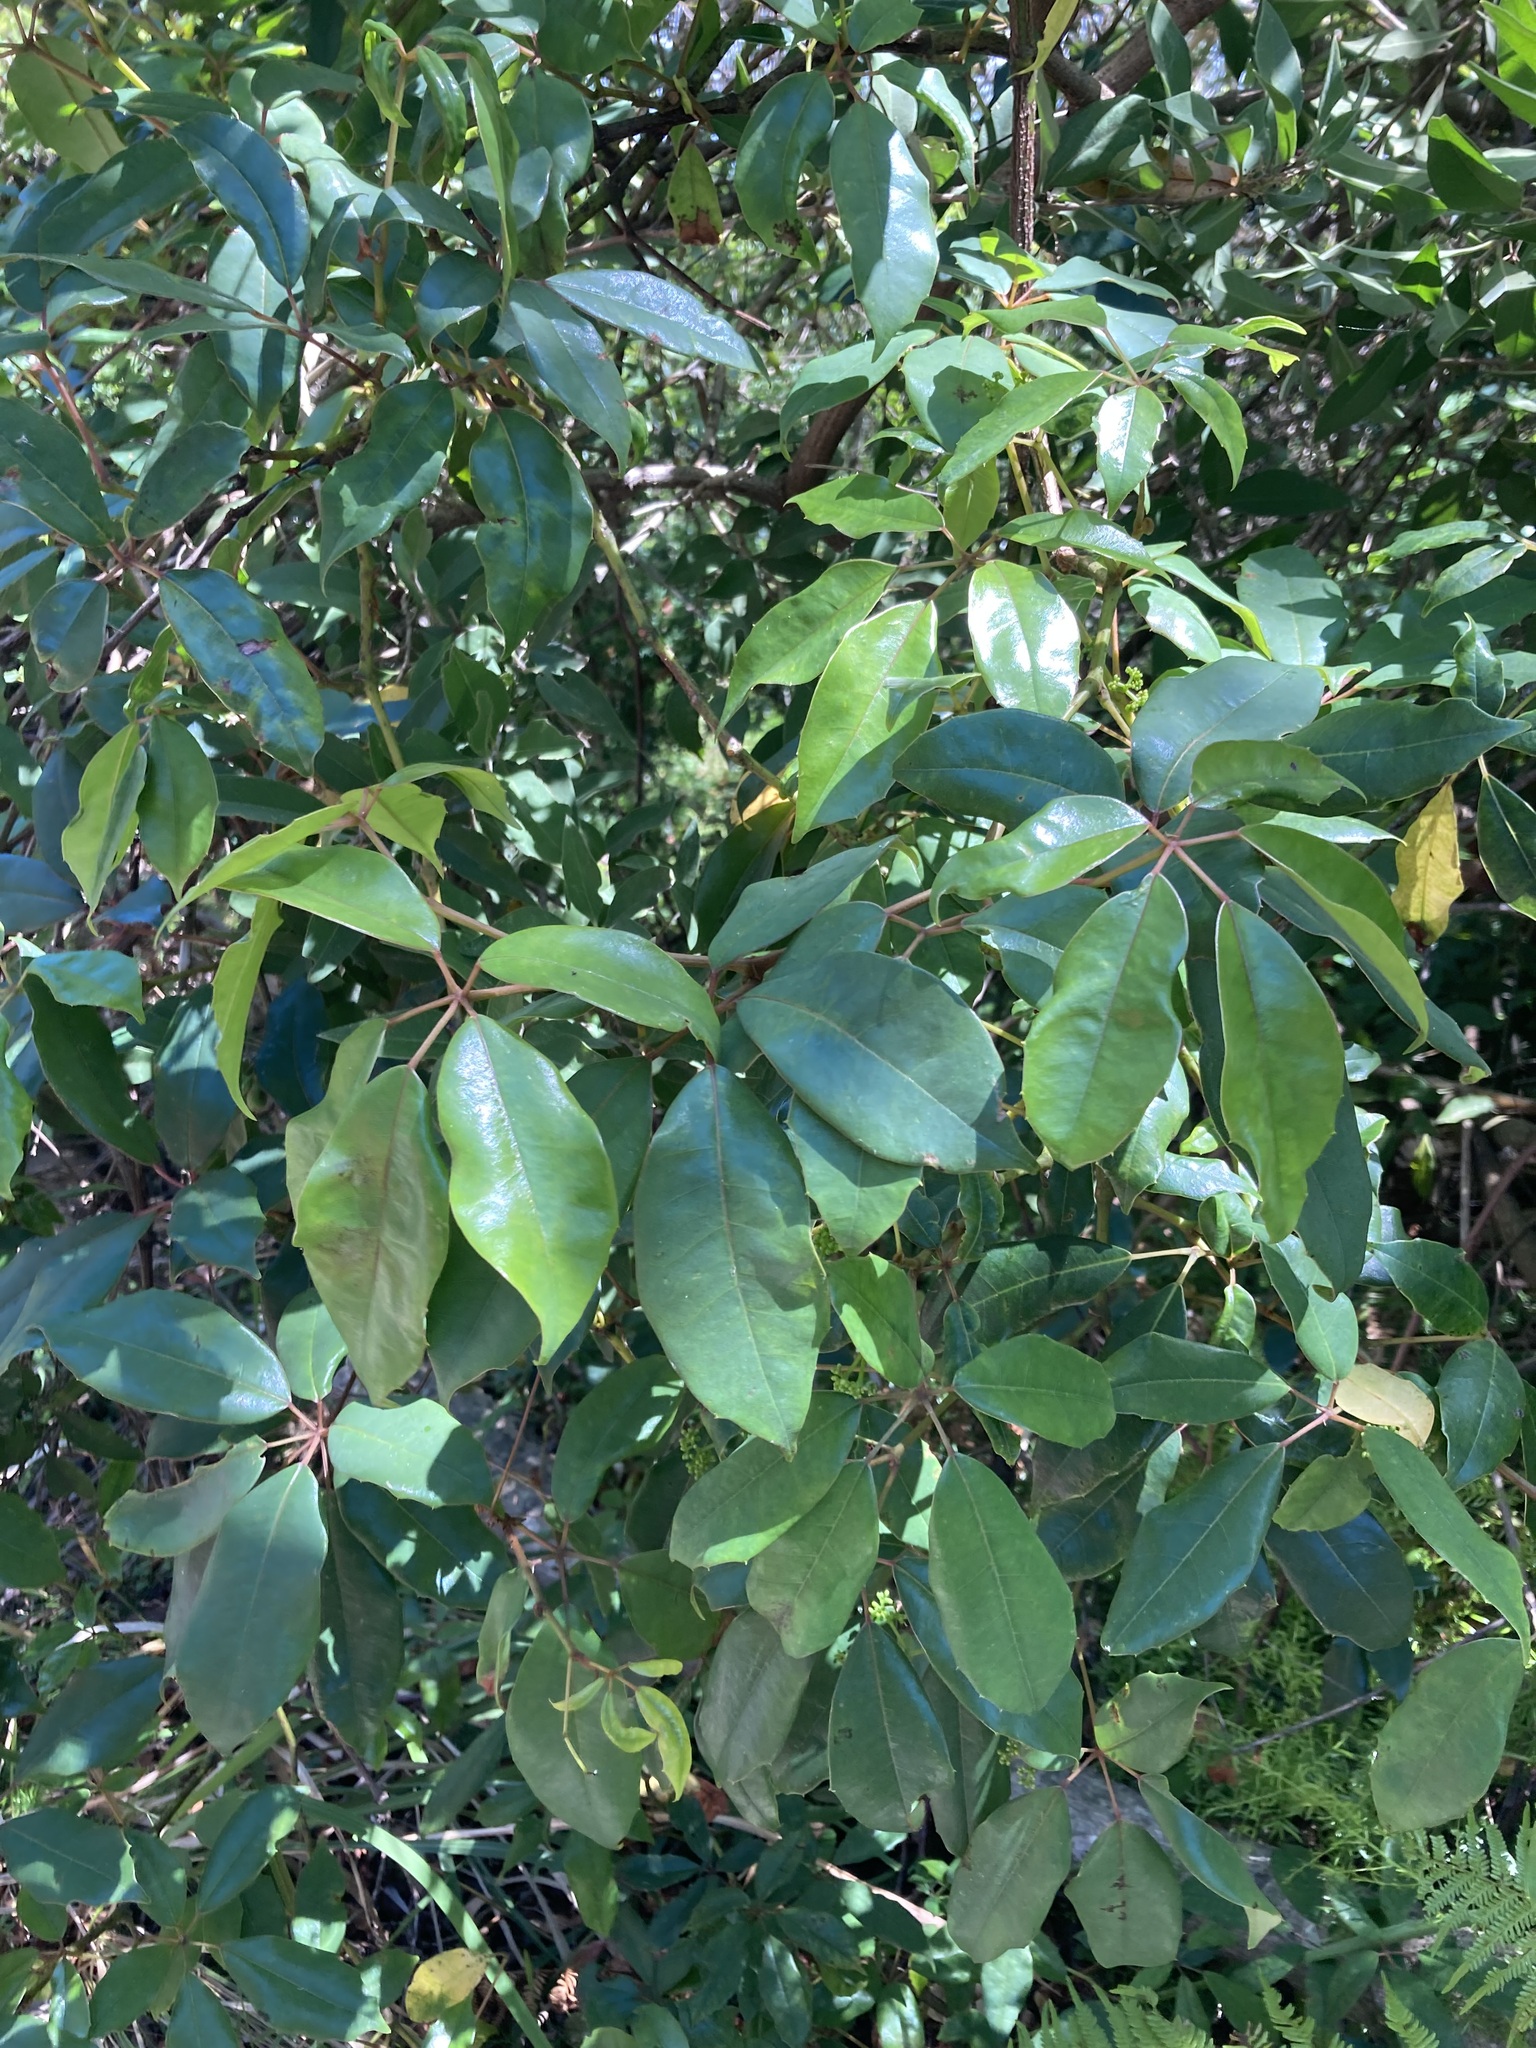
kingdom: Plantae
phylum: Tracheophyta
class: Magnoliopsida
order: Vitales
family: Vitaceae
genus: Nothocissus
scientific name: Nothocissus hypoglauca
